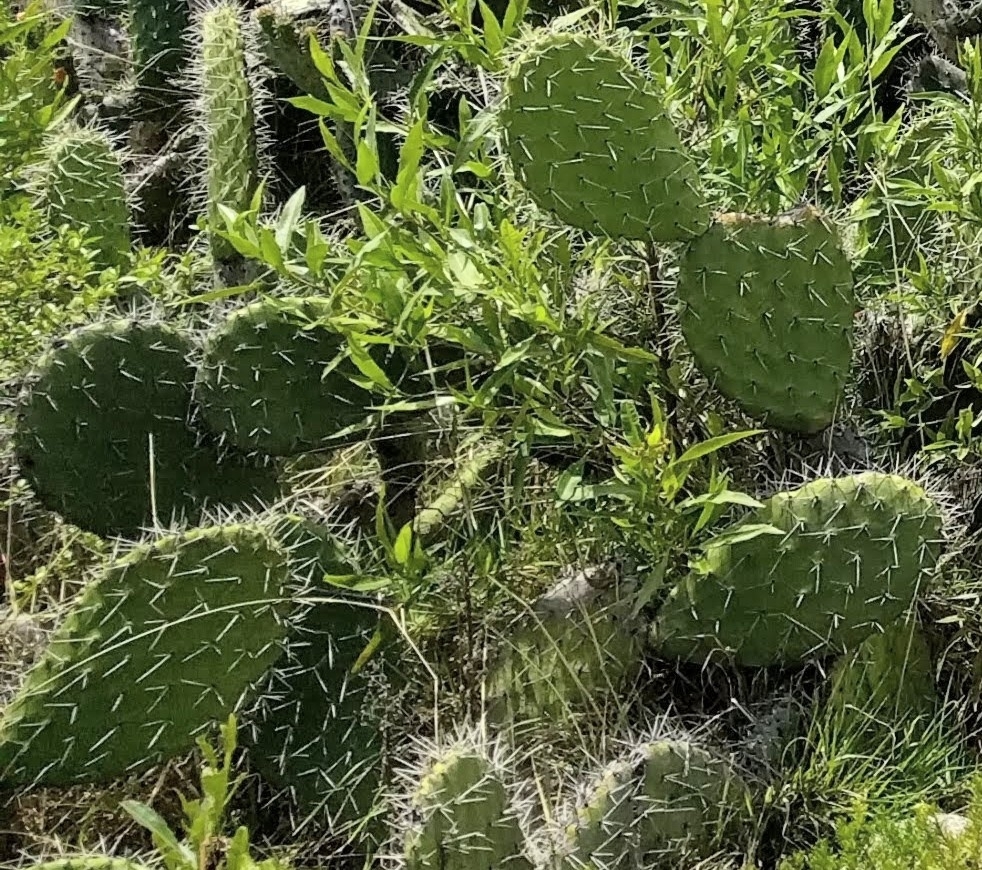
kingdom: Plantae
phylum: Tracheophyta
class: Magnoliopsida
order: Caryophyllales
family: Cactaceae
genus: Opuntia
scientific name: Opuntia ficus-indica
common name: Barbary fig
